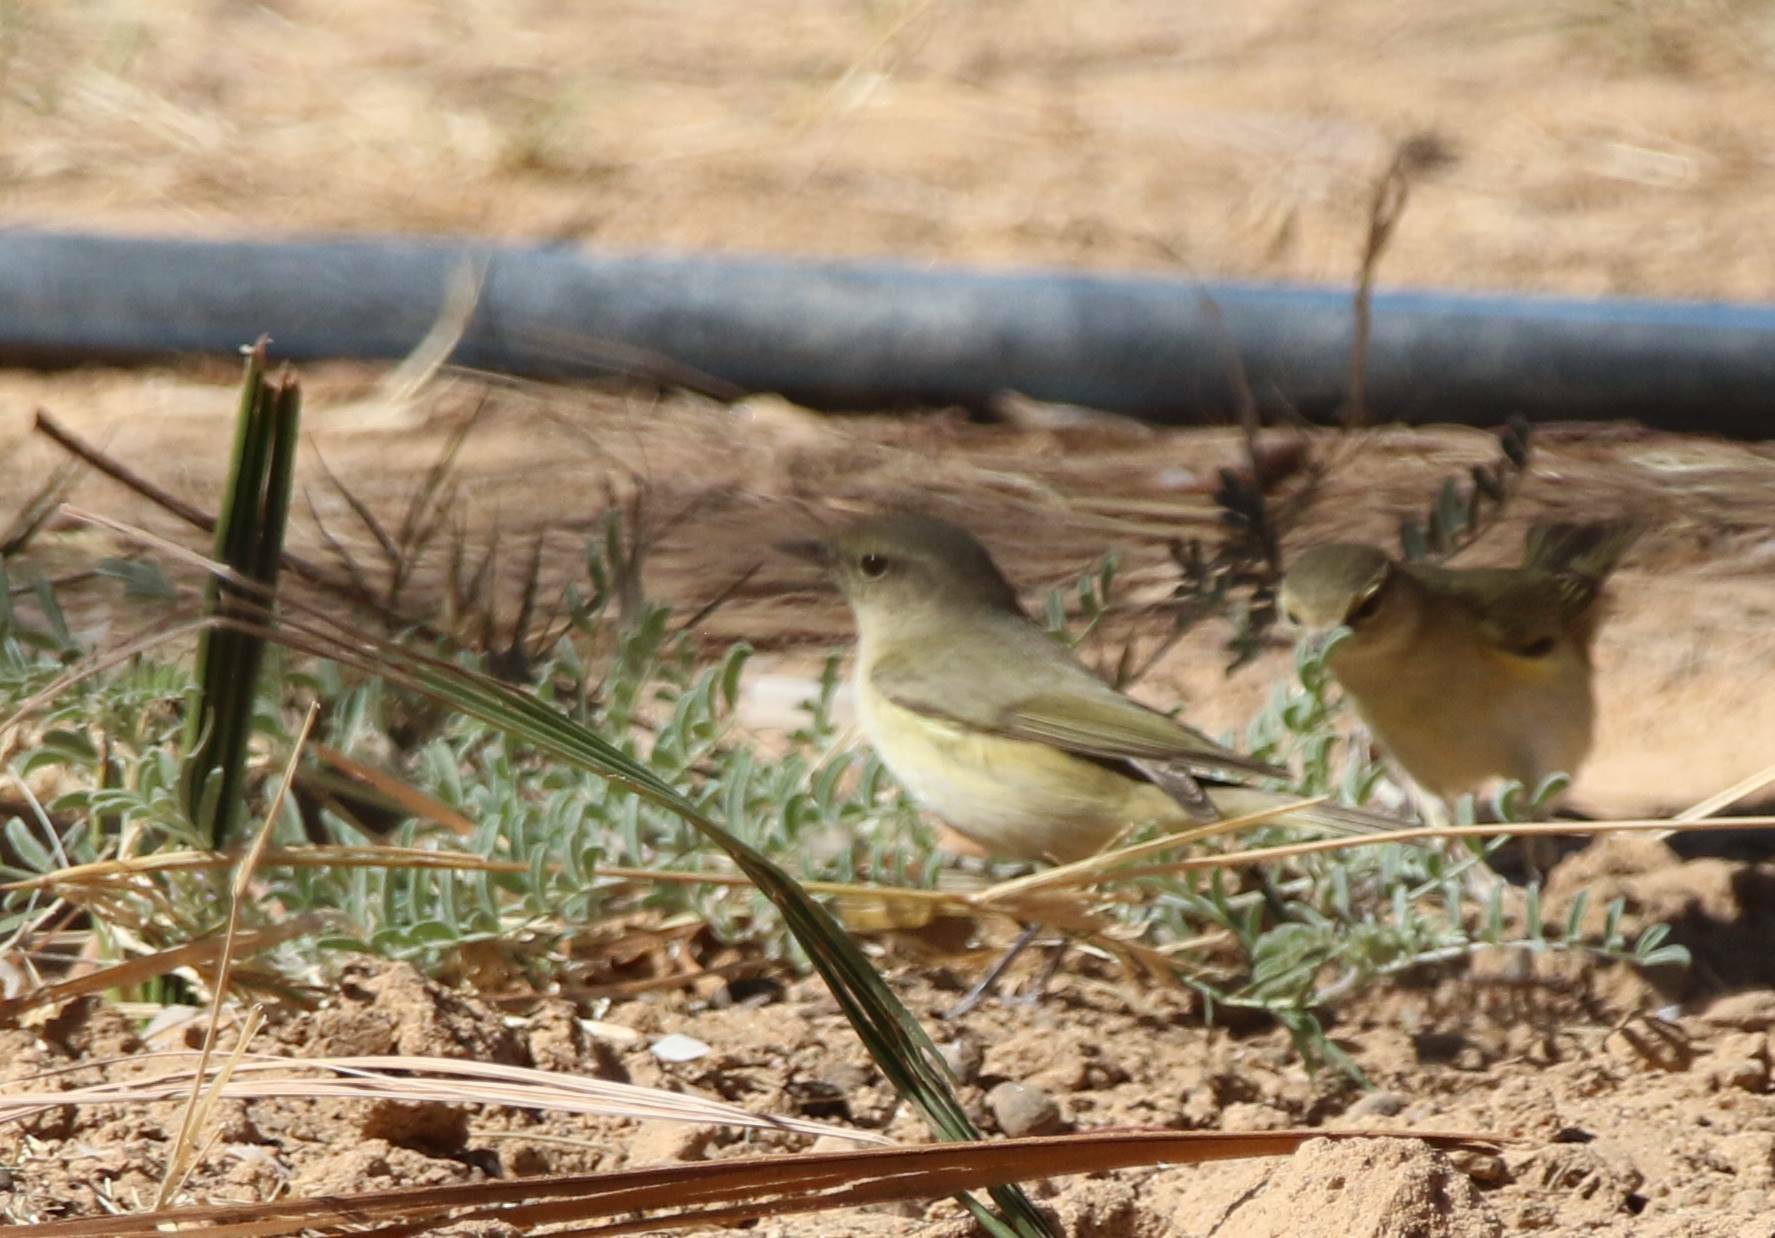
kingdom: Animalia
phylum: Chordata
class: Aves
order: Passeriformes
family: Phylloscopidae
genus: Phylloscopus
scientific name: Phylloscopus collybita
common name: Common chiffchaff
